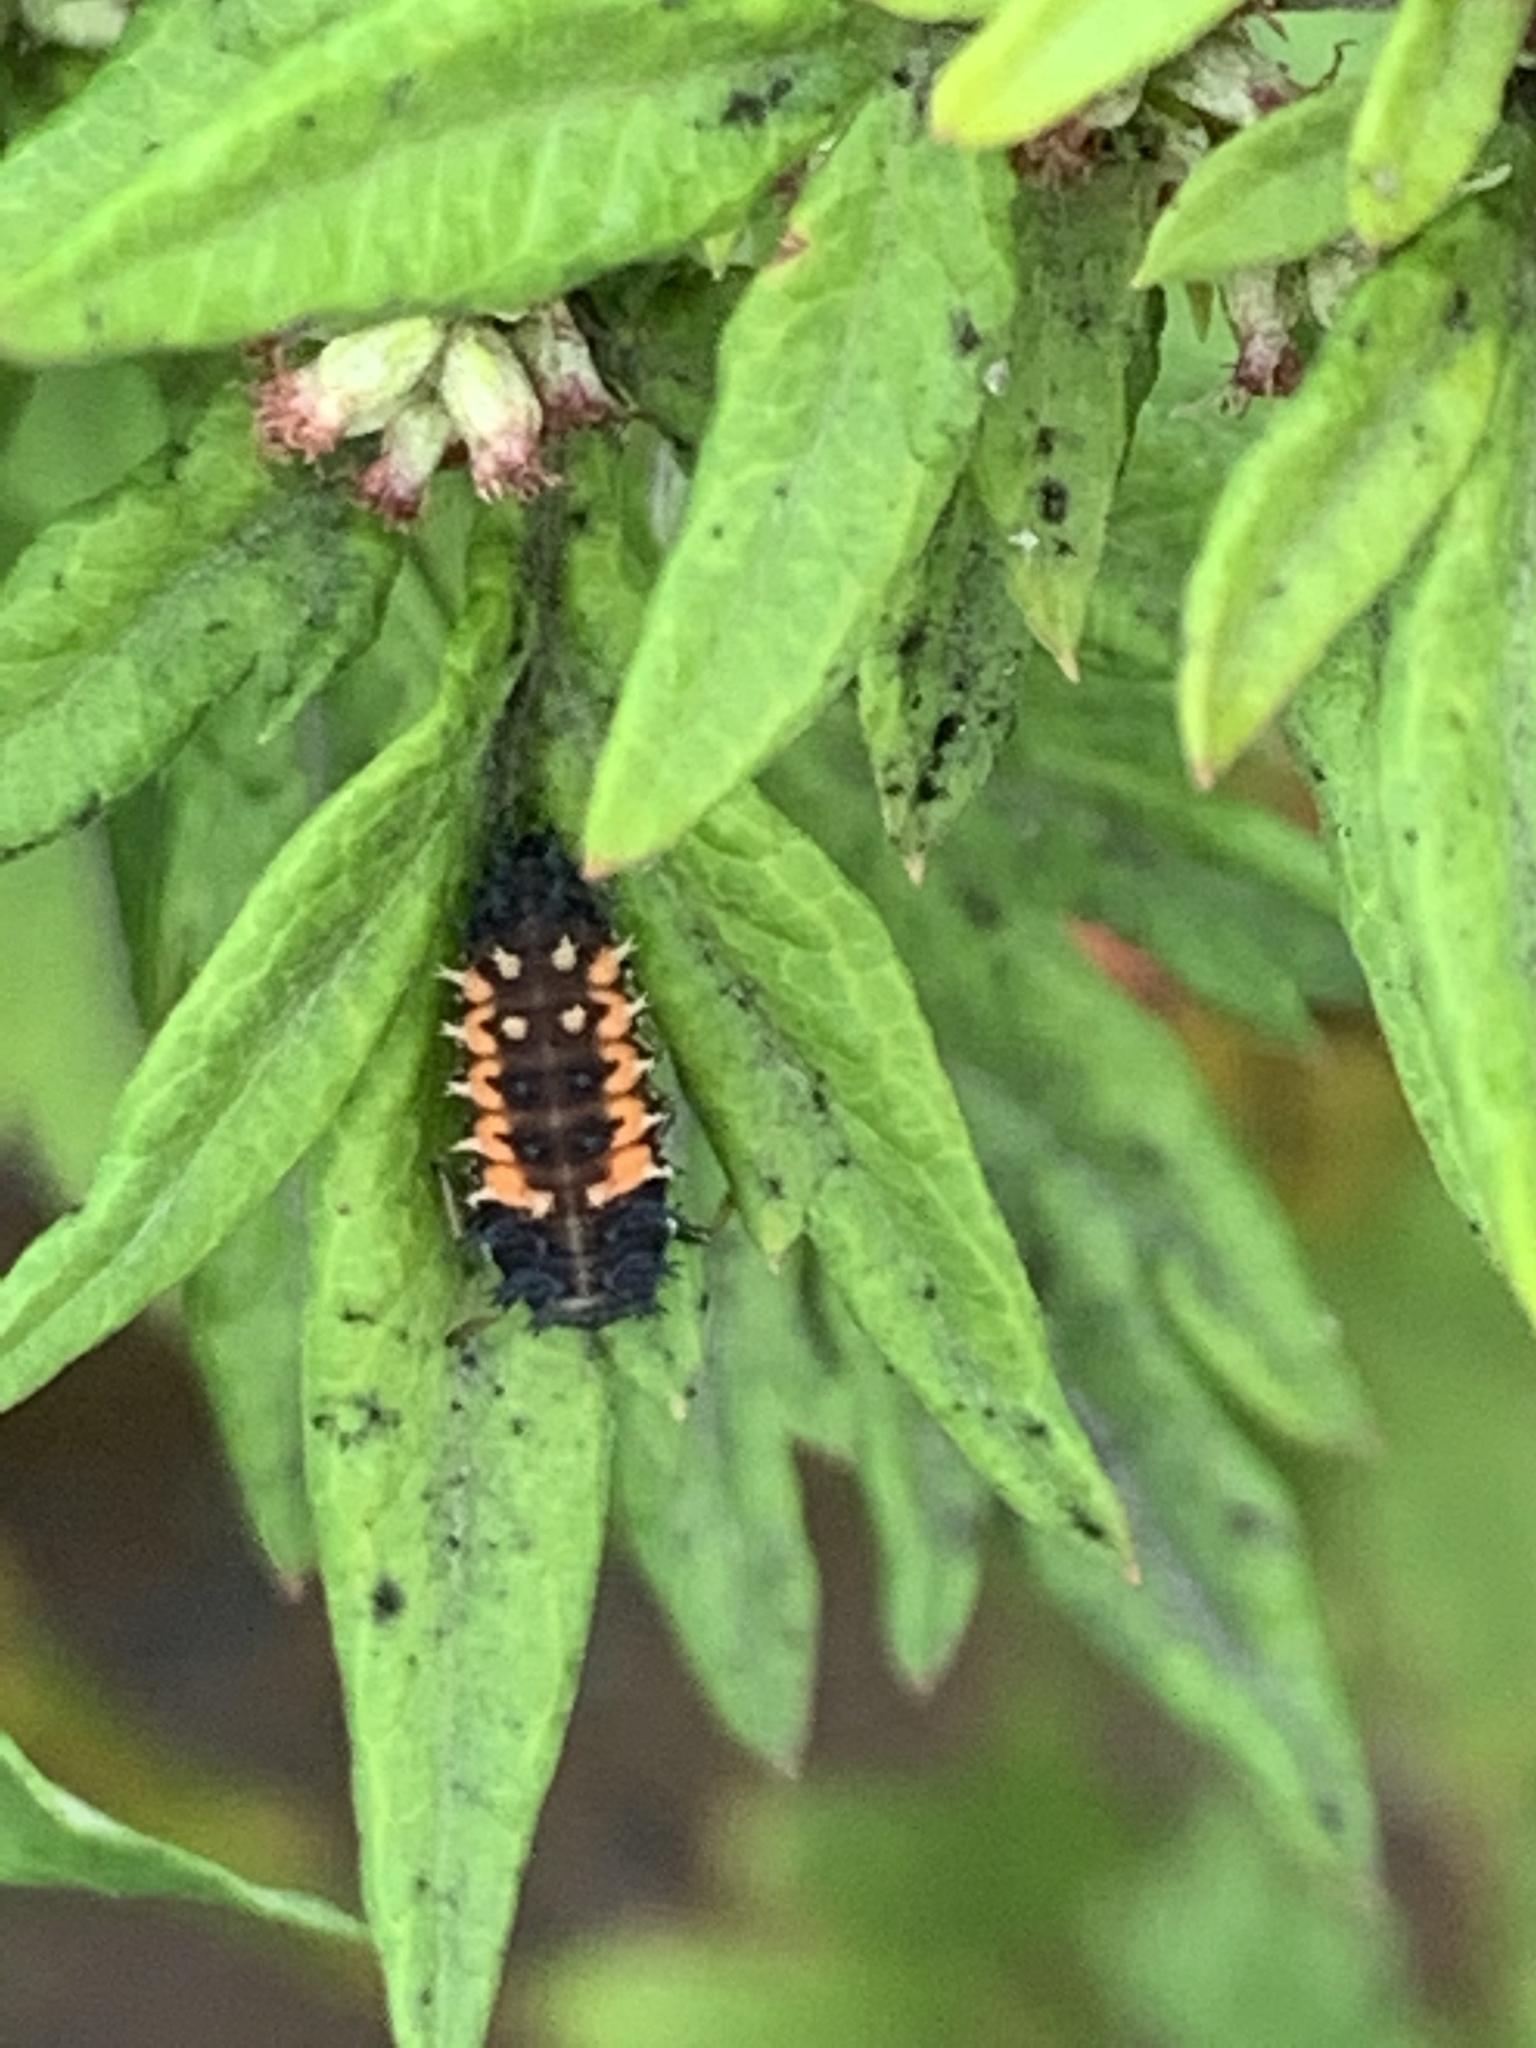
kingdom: Animalia
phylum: Arthropoda
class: Insecta
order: Coleoptera
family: Coccinellidae
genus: Harmonia
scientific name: Harmonia axyridis
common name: Harlequin ladybird
